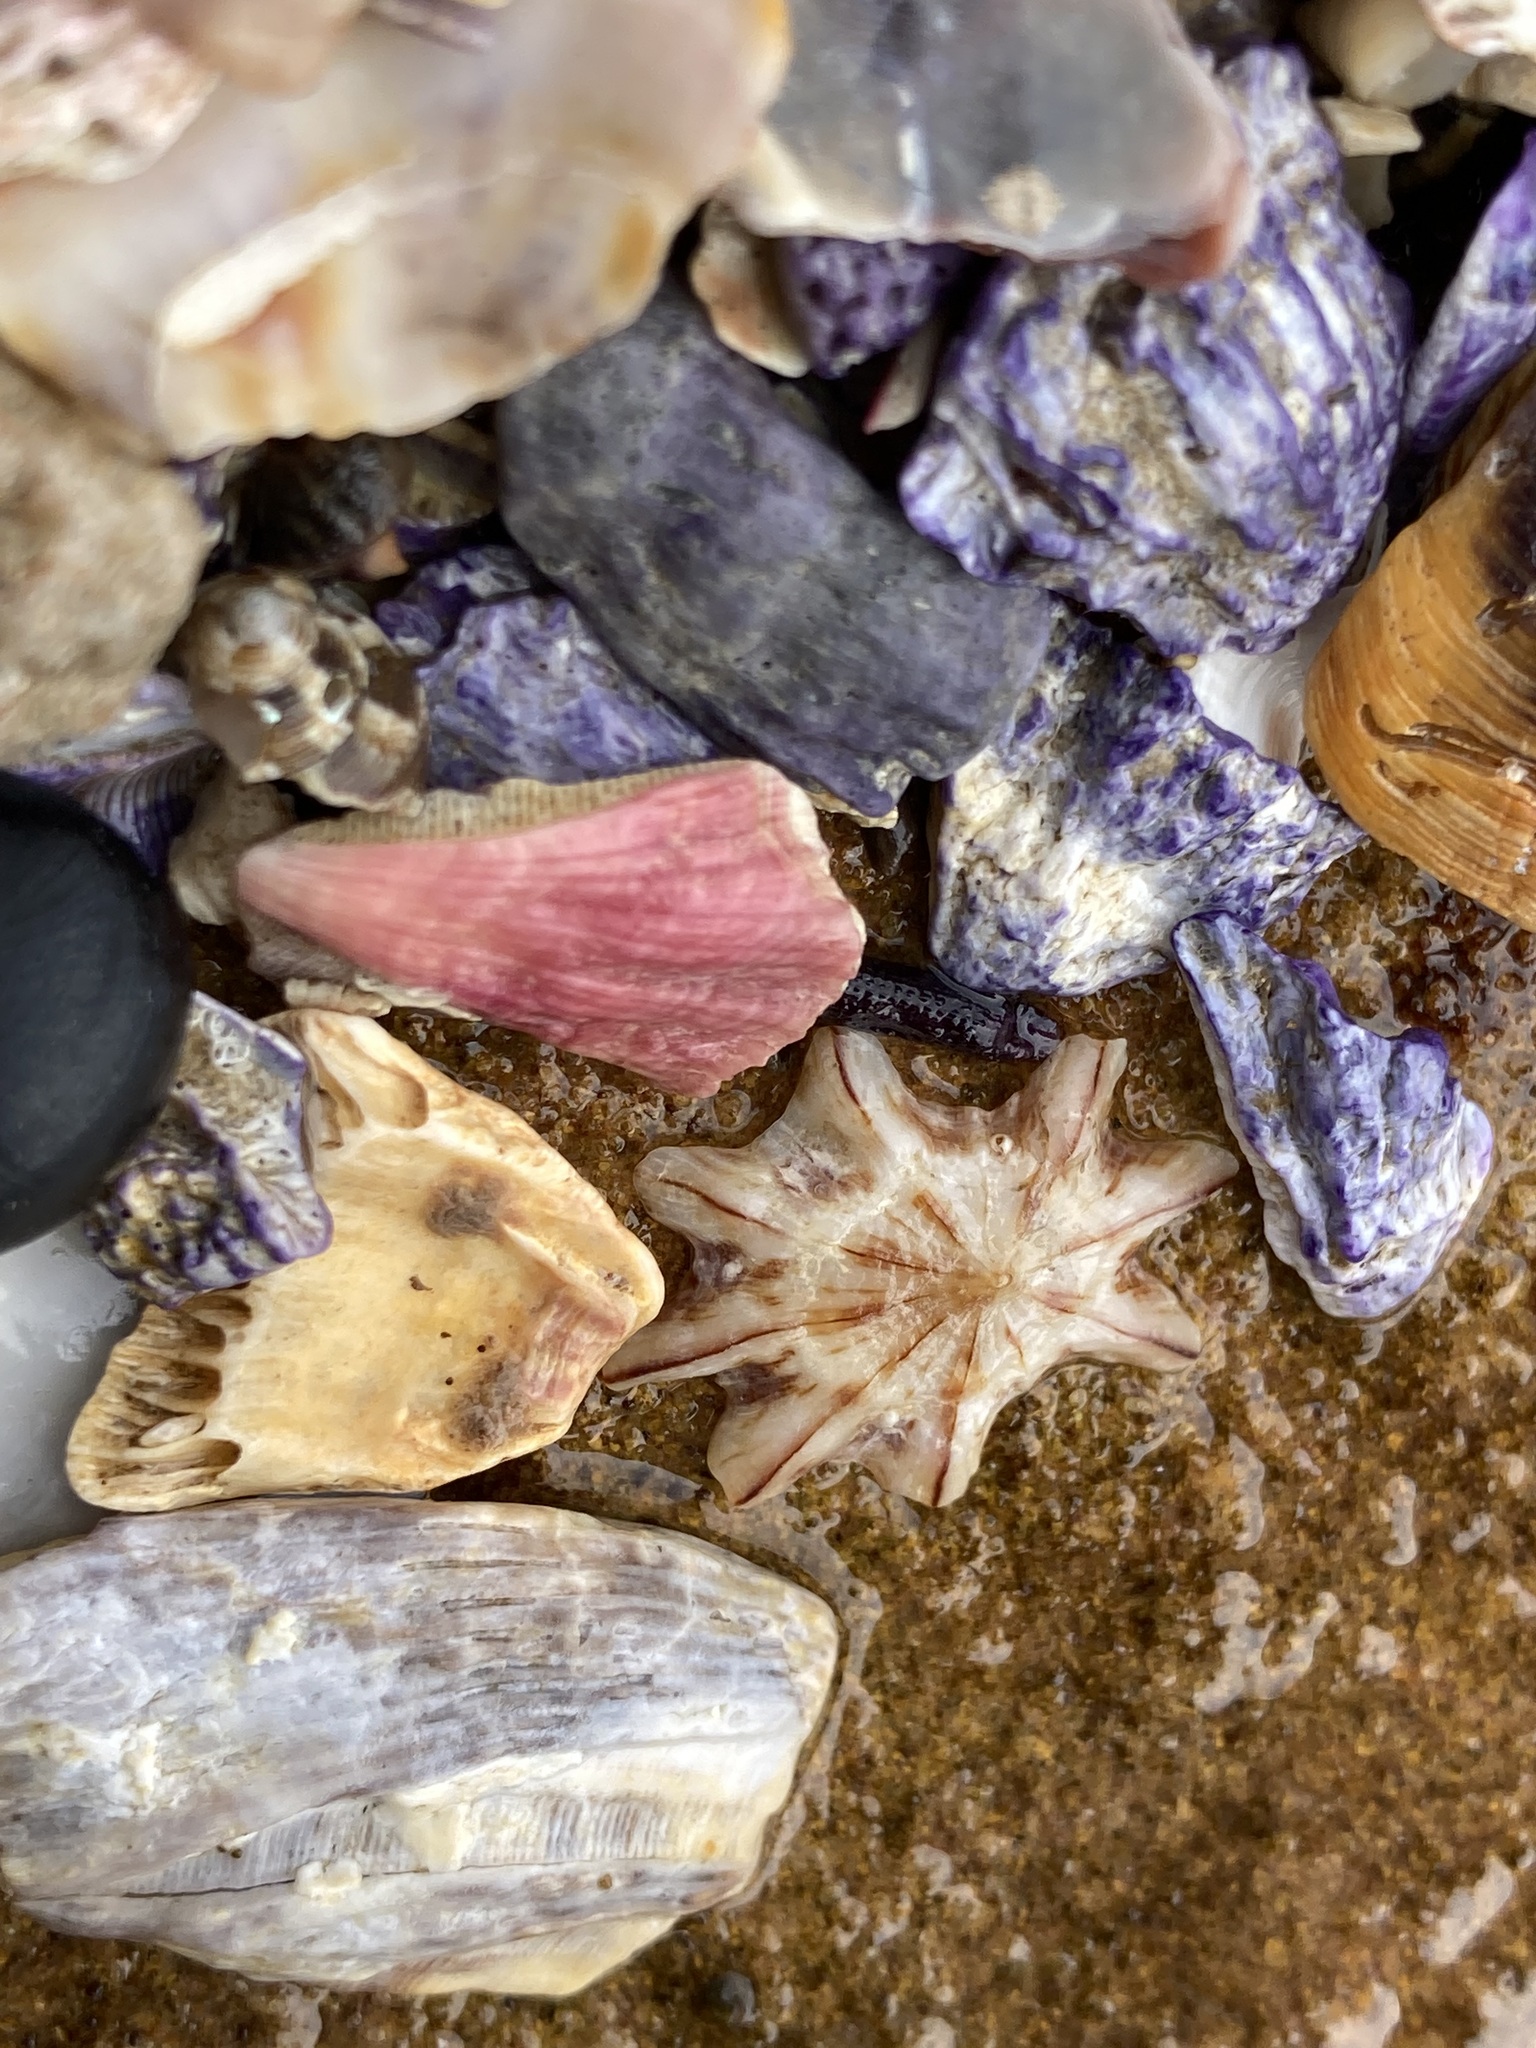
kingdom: Animalia
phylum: Mollusca
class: Gastropoda
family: Patellidae
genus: Scutellastra
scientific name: Scutellastra chapmani
